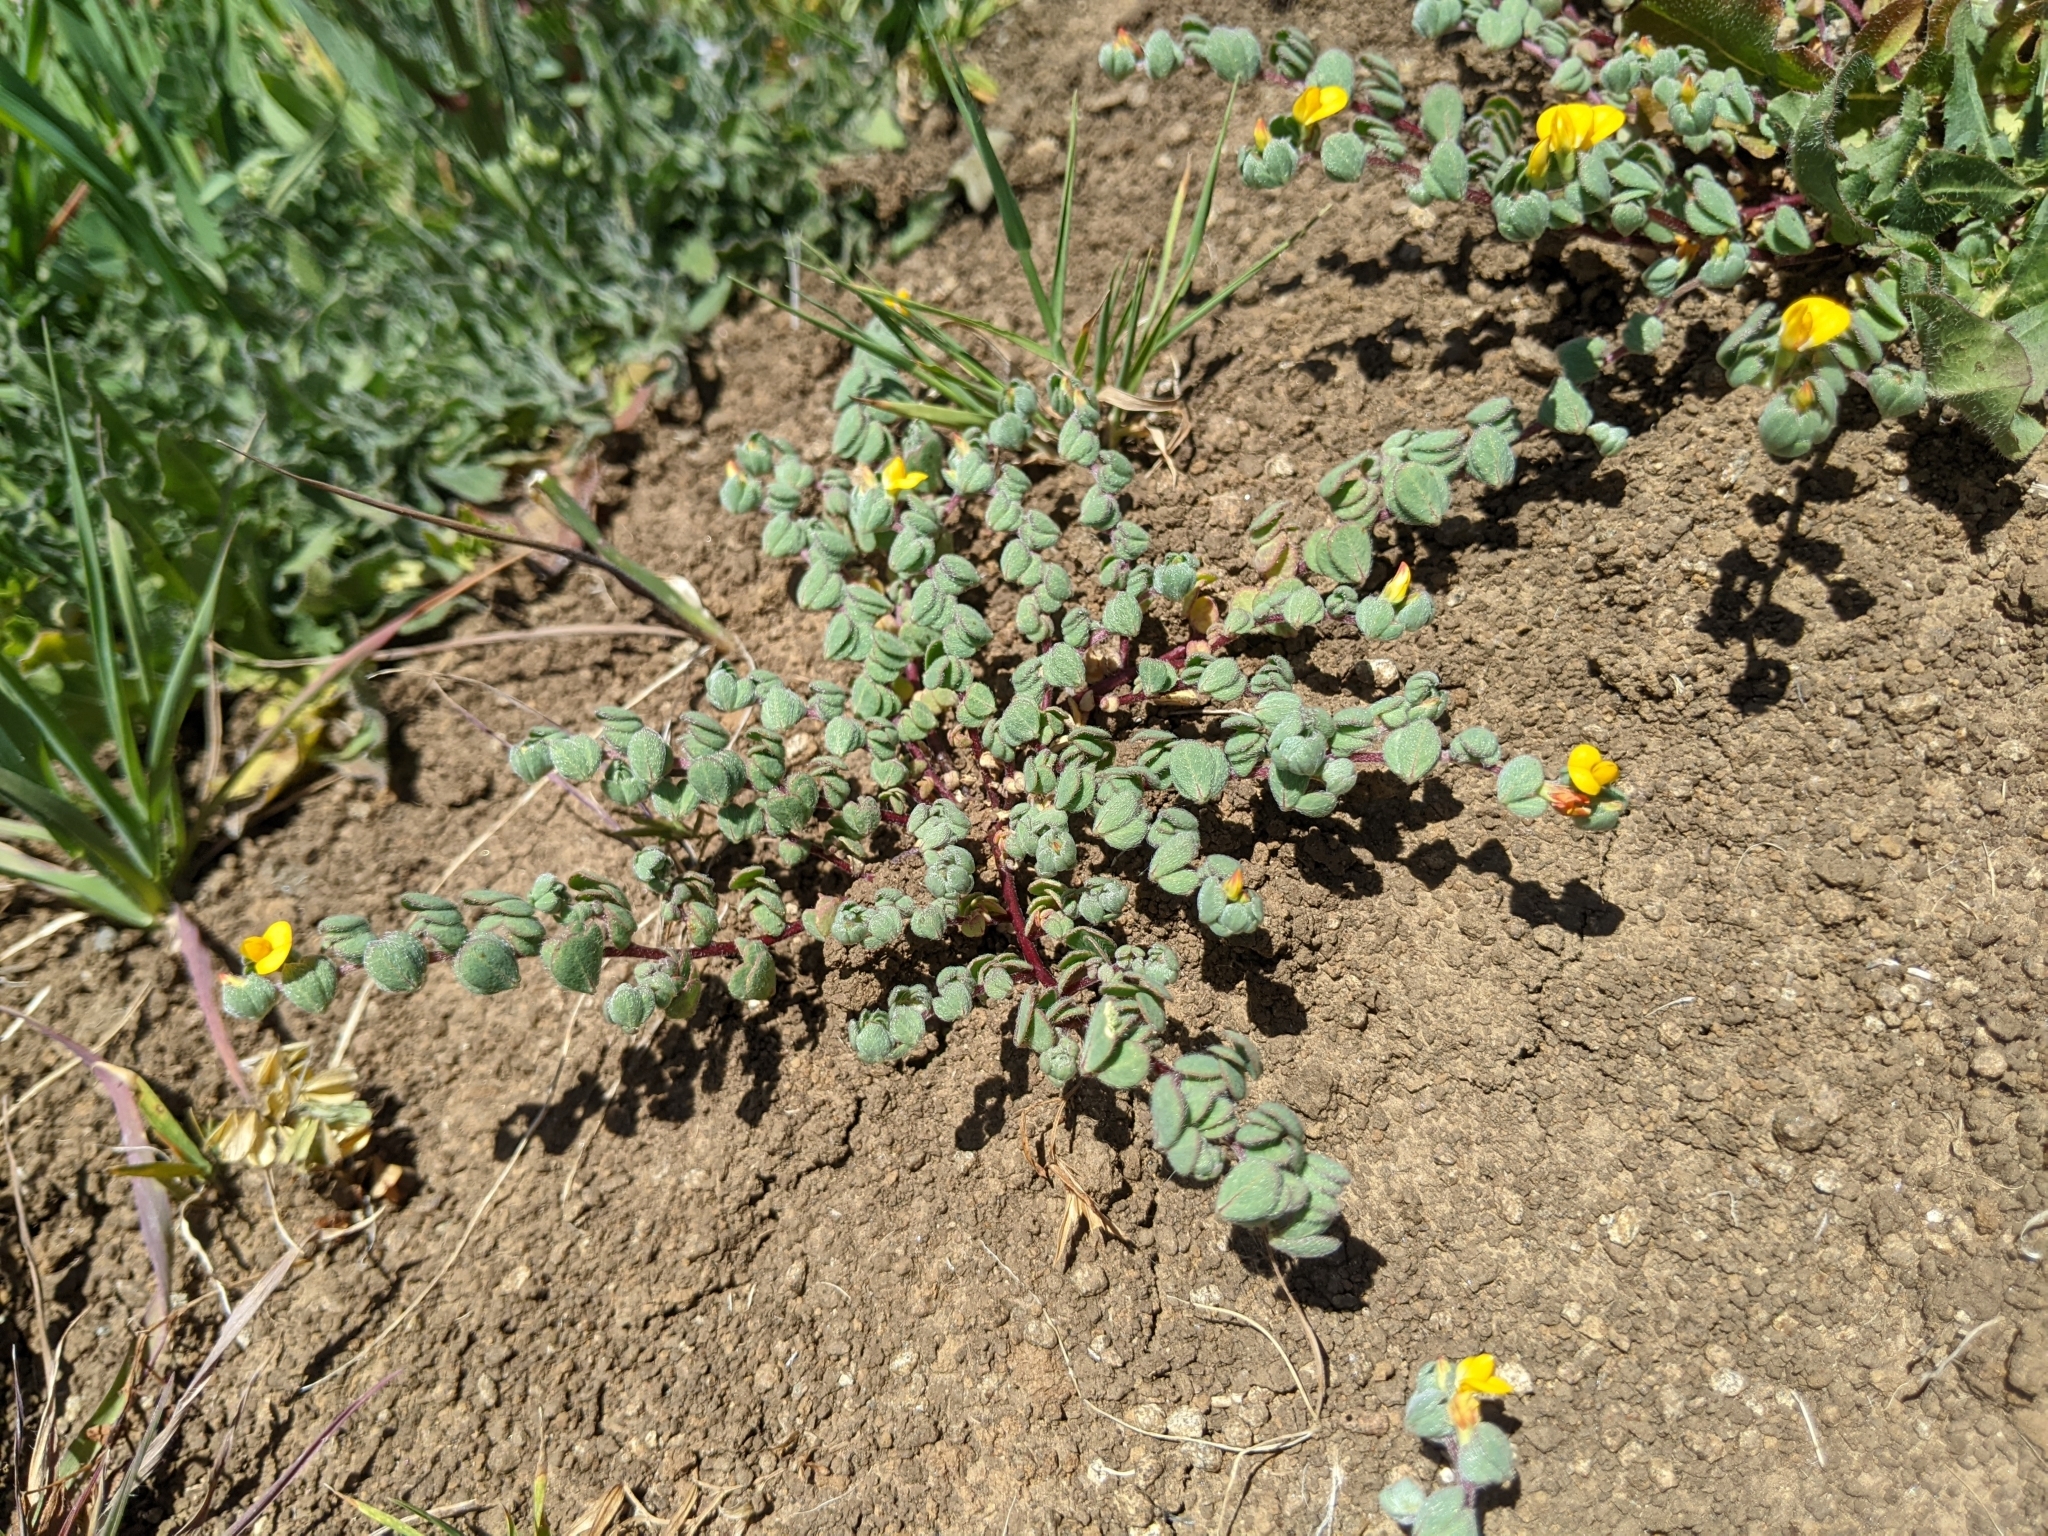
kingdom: Plantae
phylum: Tracheophyta
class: Magnoliopsida
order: Fabales
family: Fabaceae
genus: Acmispon
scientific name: Acmispon wrangelianus
